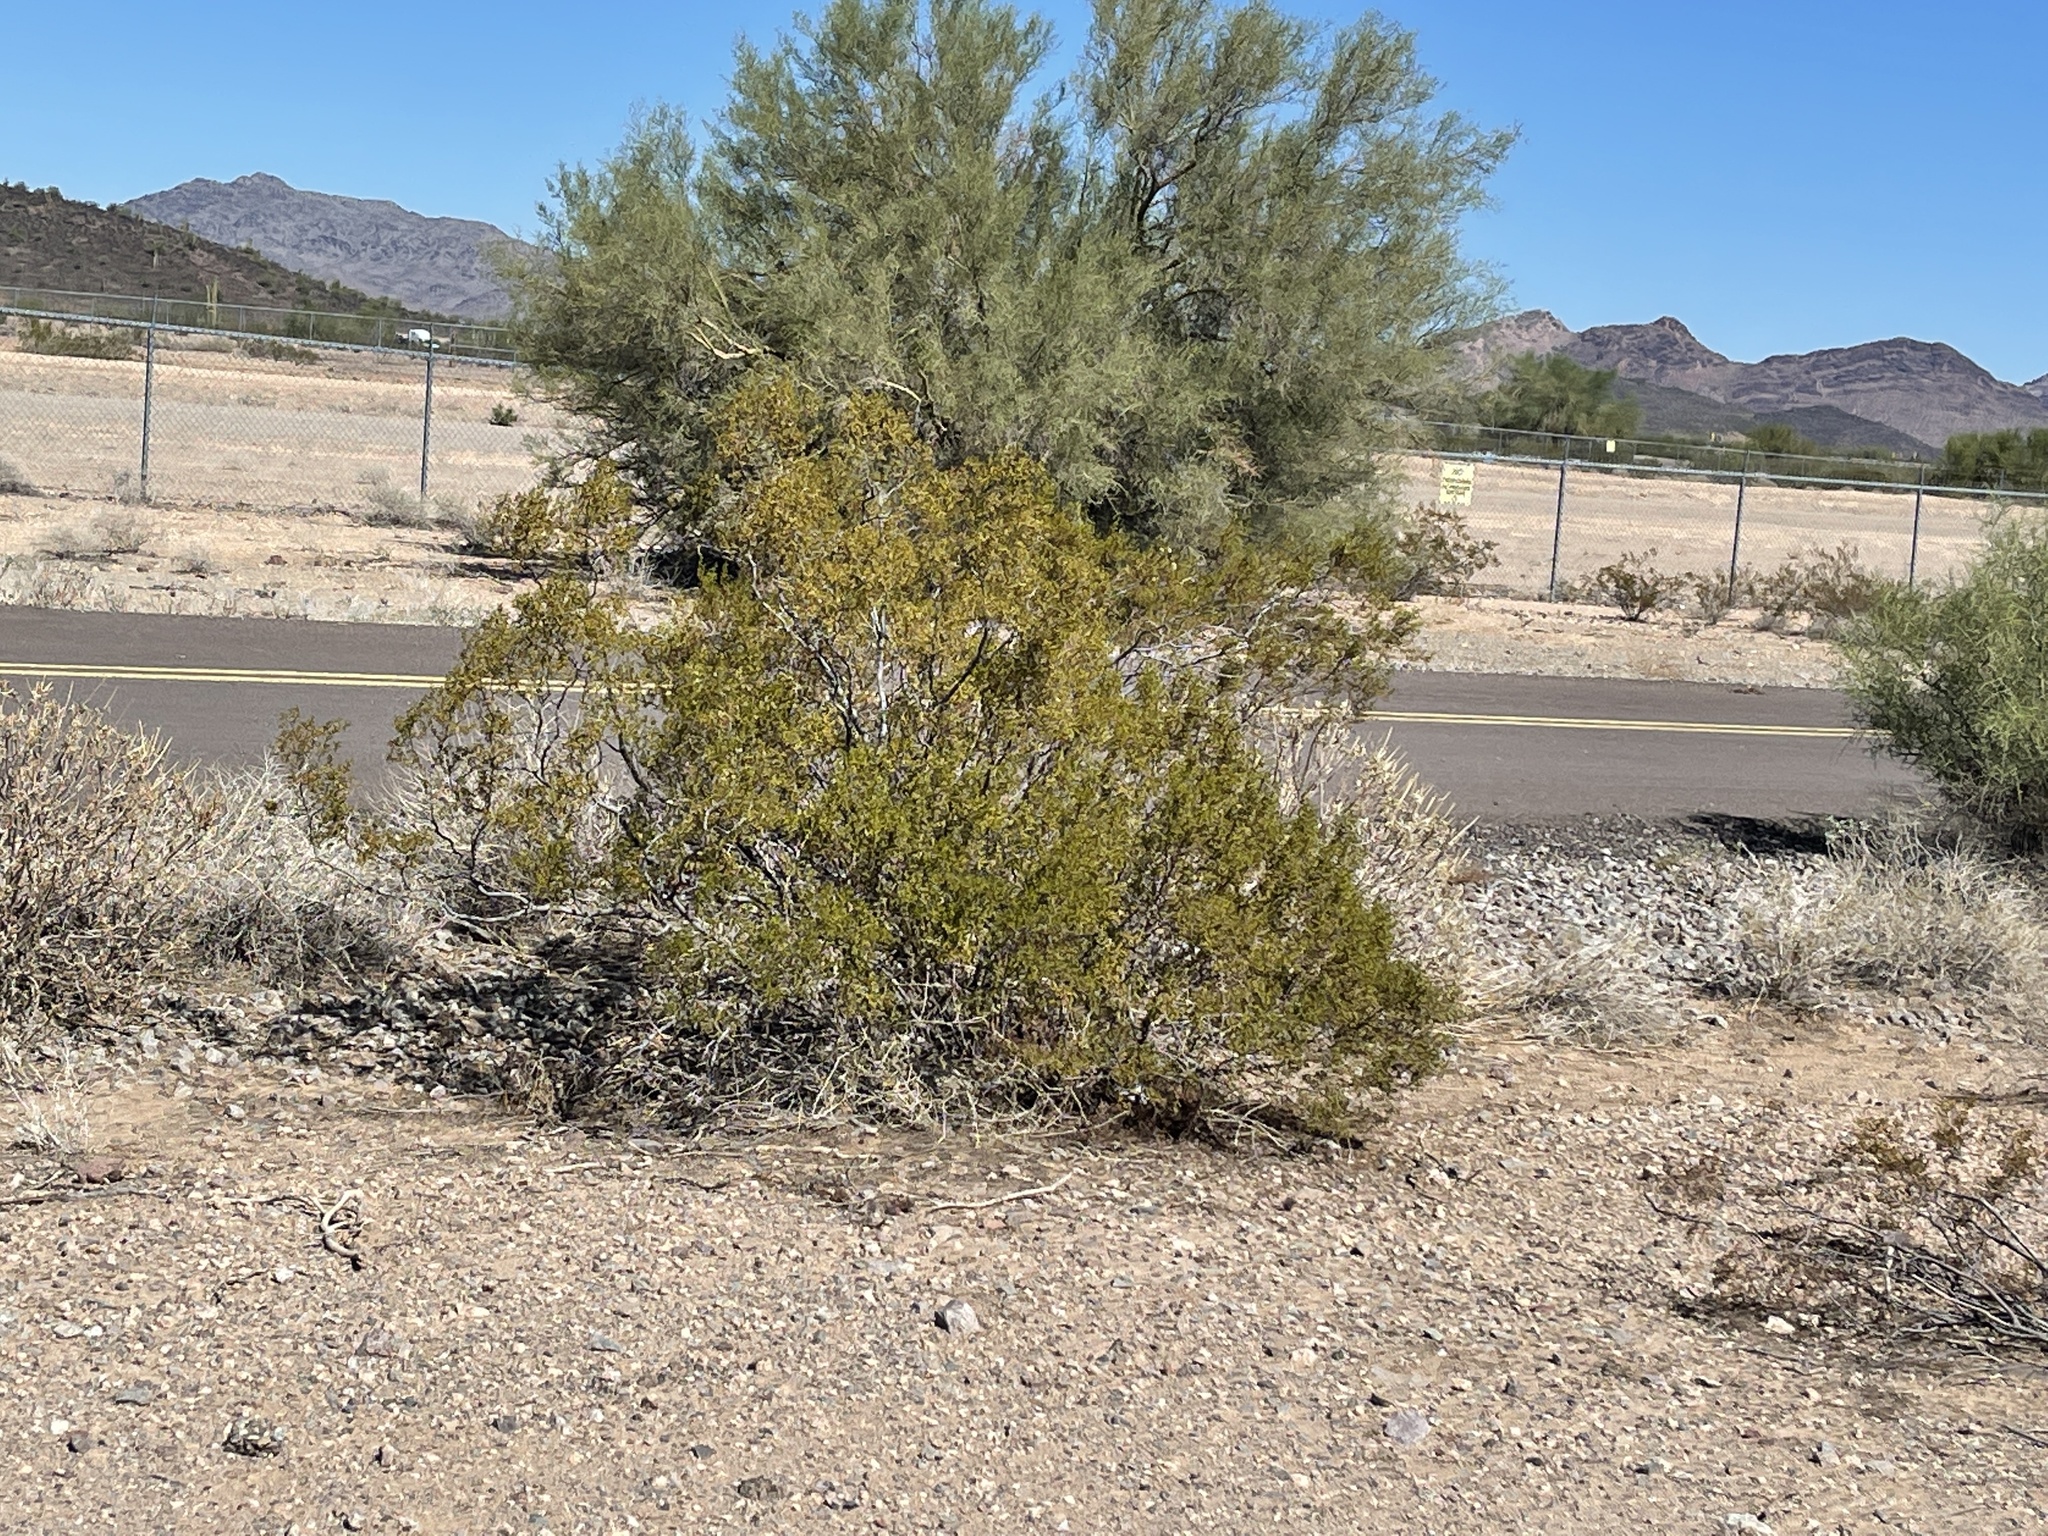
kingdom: Plantae
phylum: Tracheophyta
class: Magnoliopsida
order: Zygophyllales
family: Zygophyllaceae
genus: Larrea
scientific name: Larrea tridentata
